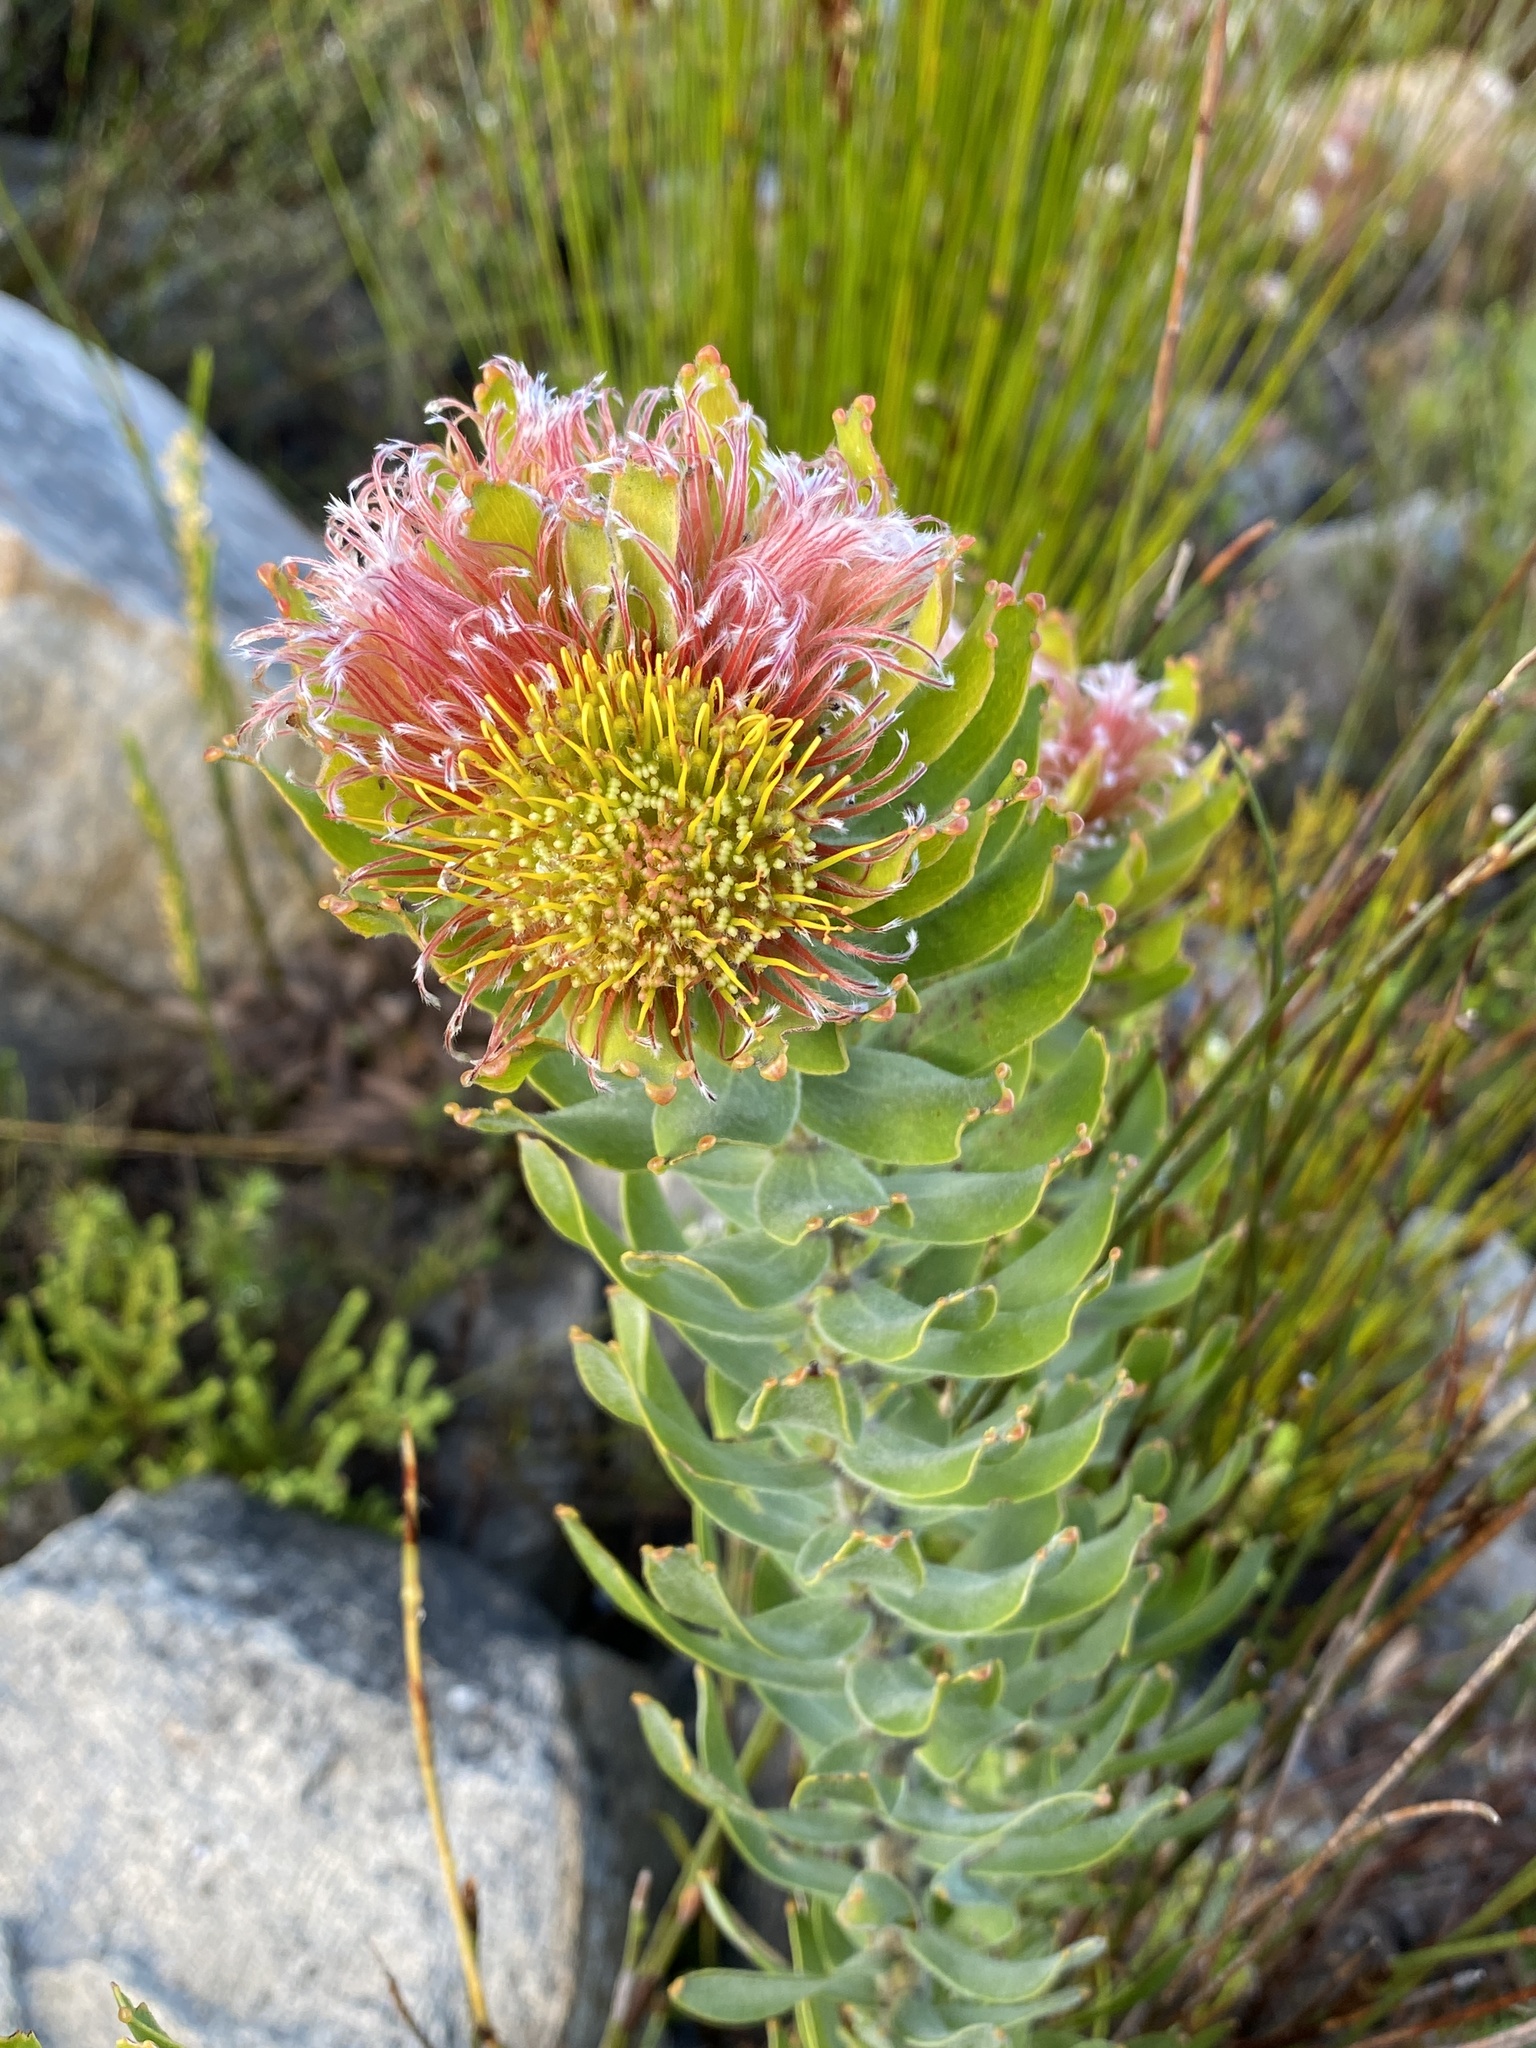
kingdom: Plantae
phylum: Tracheophyta
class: Magnoliopsida
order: Proteales
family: Proteaceae
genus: Leucospermum
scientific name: Leucospermum oleifolium
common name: Matches
